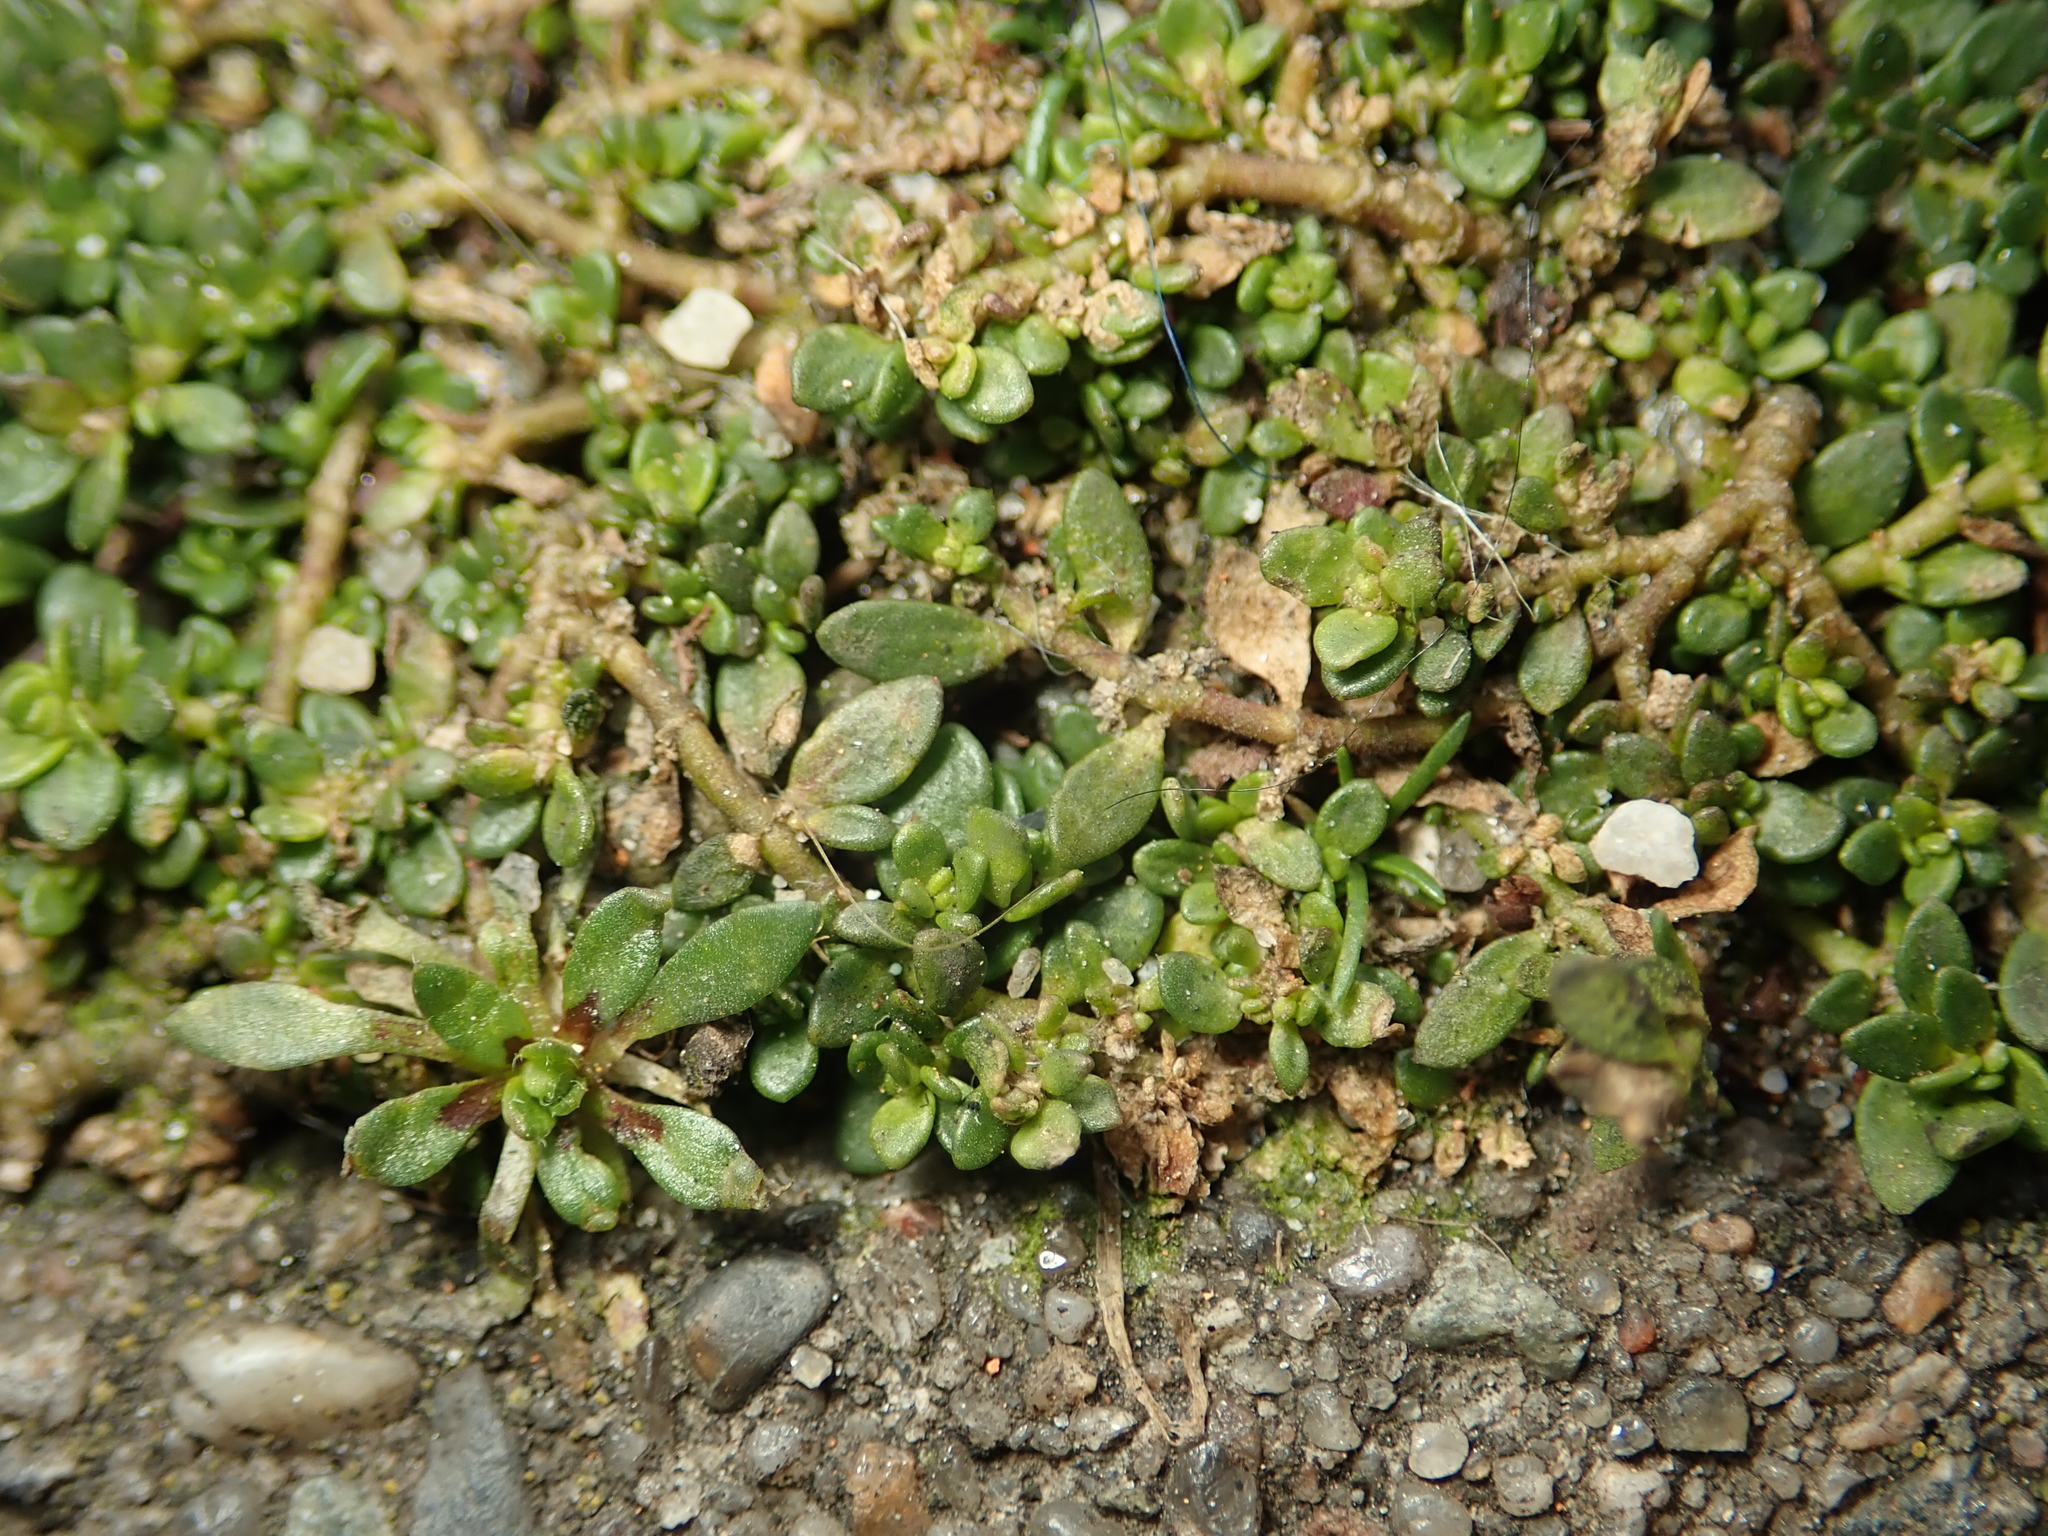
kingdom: Plantae
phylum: Tracheophyta
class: Magnoliopsida
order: Caryophyllales
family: Caryophyllaceae
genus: Herniaria
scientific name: Herniaria glabra
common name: Smooth rupturewort
